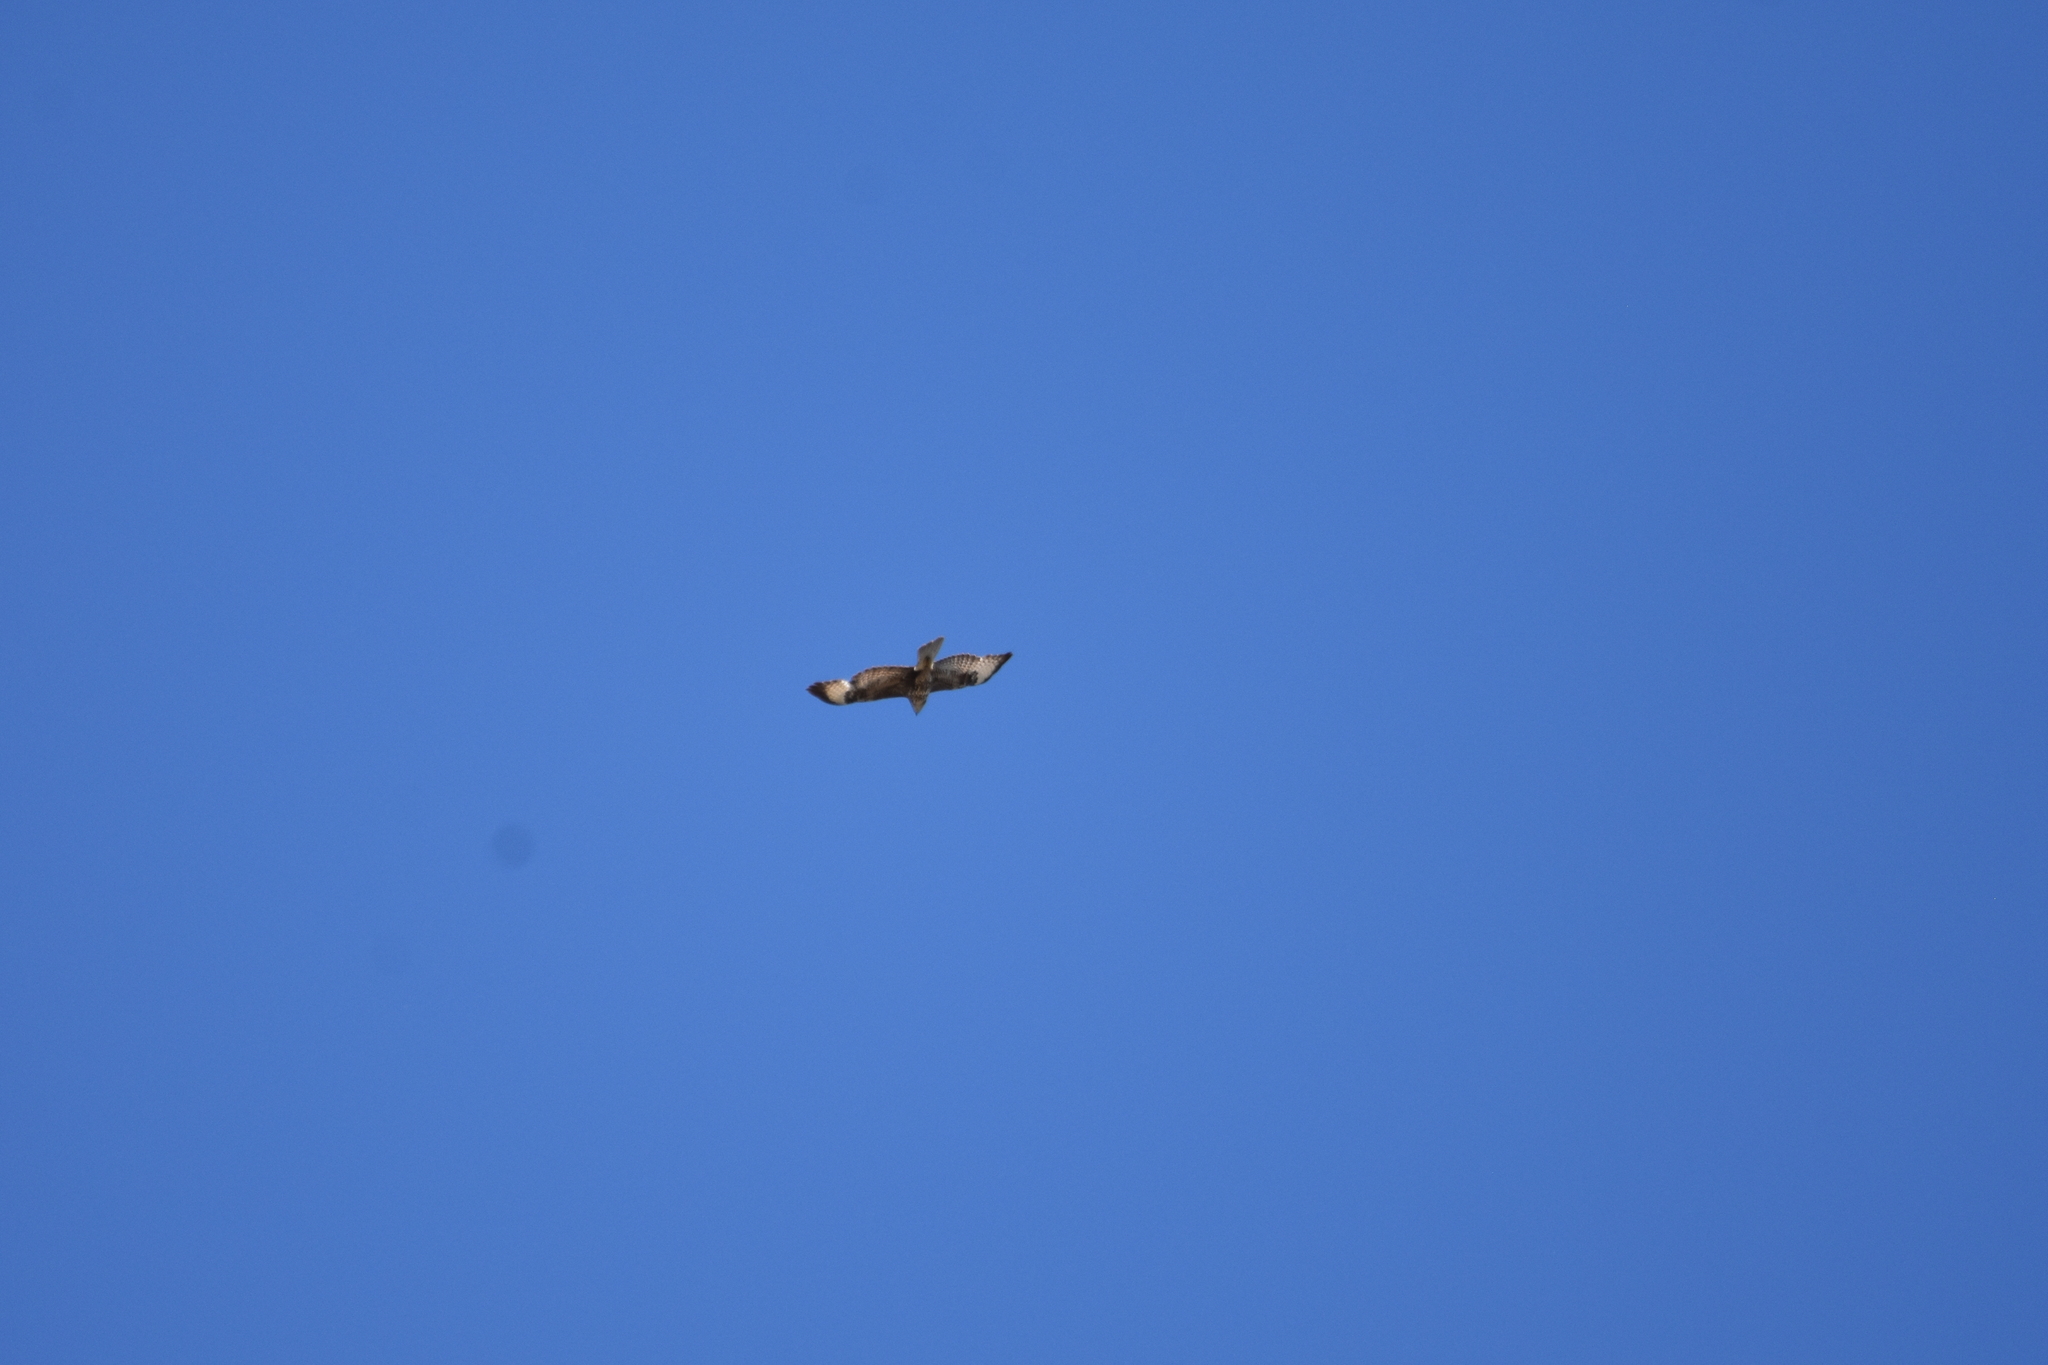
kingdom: Animalia
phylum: Chordata
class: Aves
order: Accipitriformes
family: Accipitridae
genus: Buteo
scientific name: Buteo buteo
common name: Common buzzard
